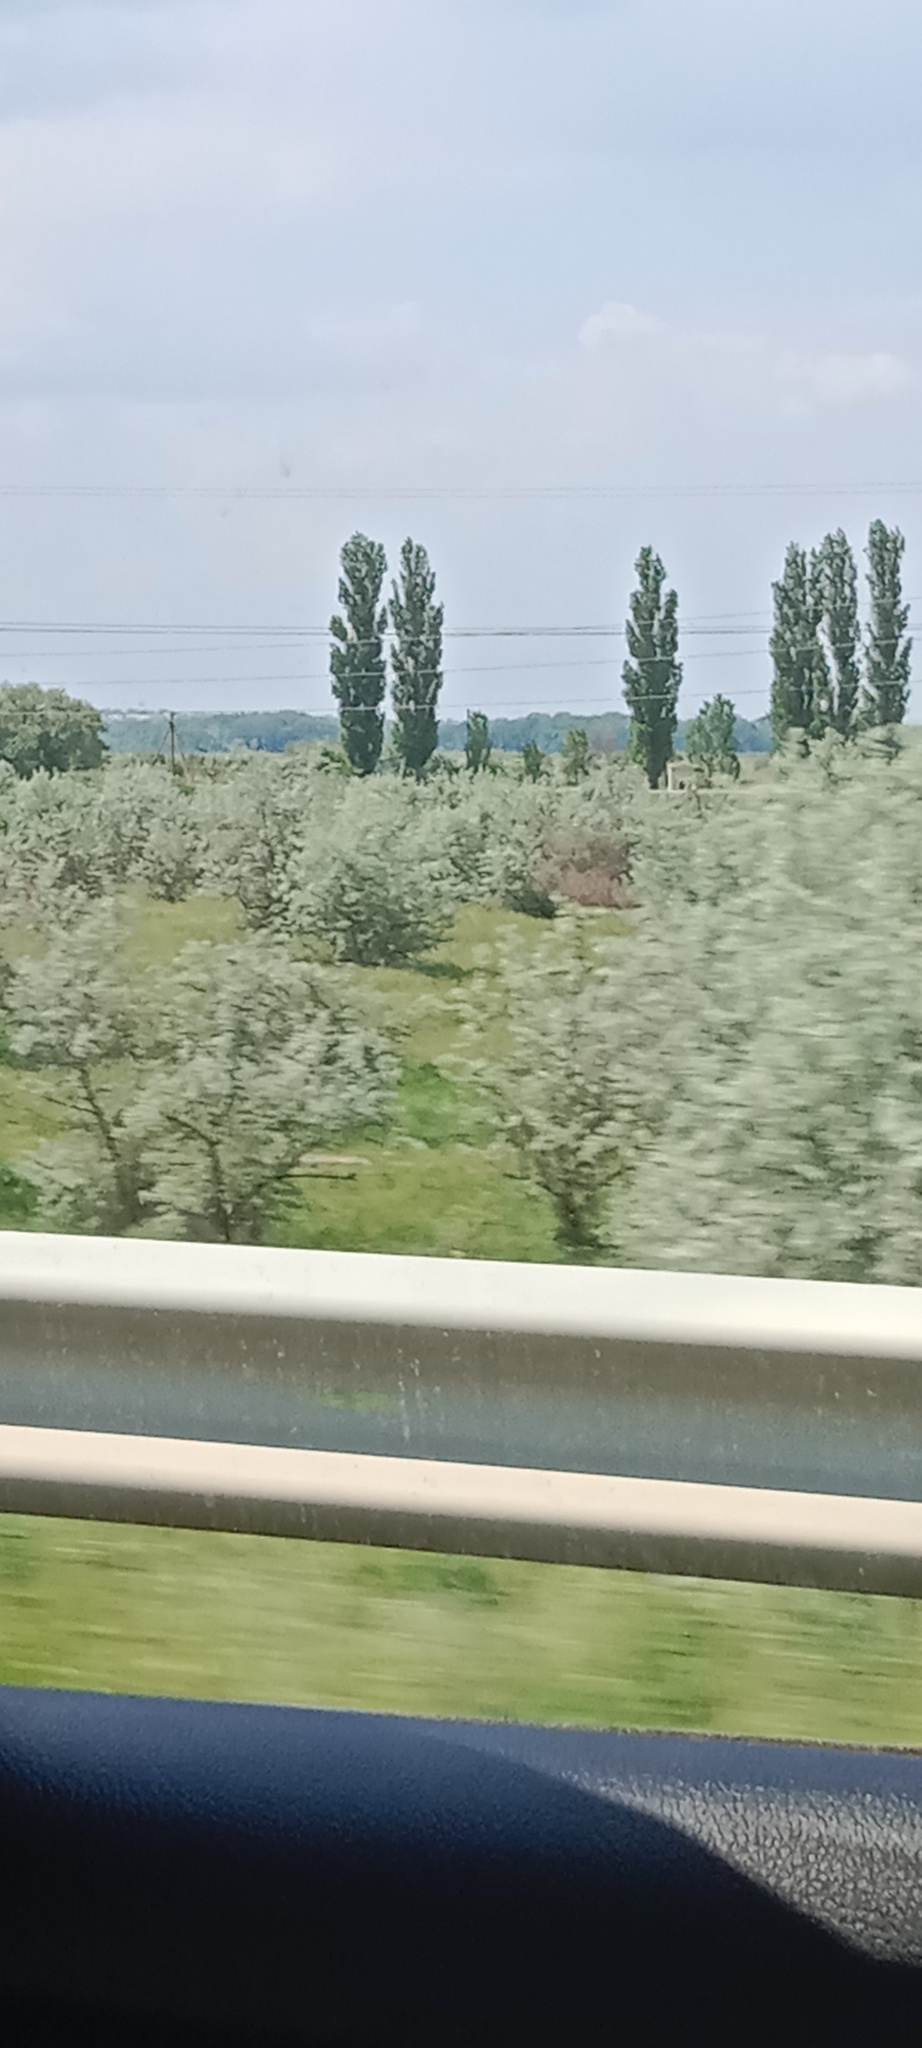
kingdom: Plantae
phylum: Tracheophyta
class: Magnoliopsida
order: Rosales
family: Elaeagnaceae
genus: Elaeagnus
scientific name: Elaeagnus angustifolia
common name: Russian olive
